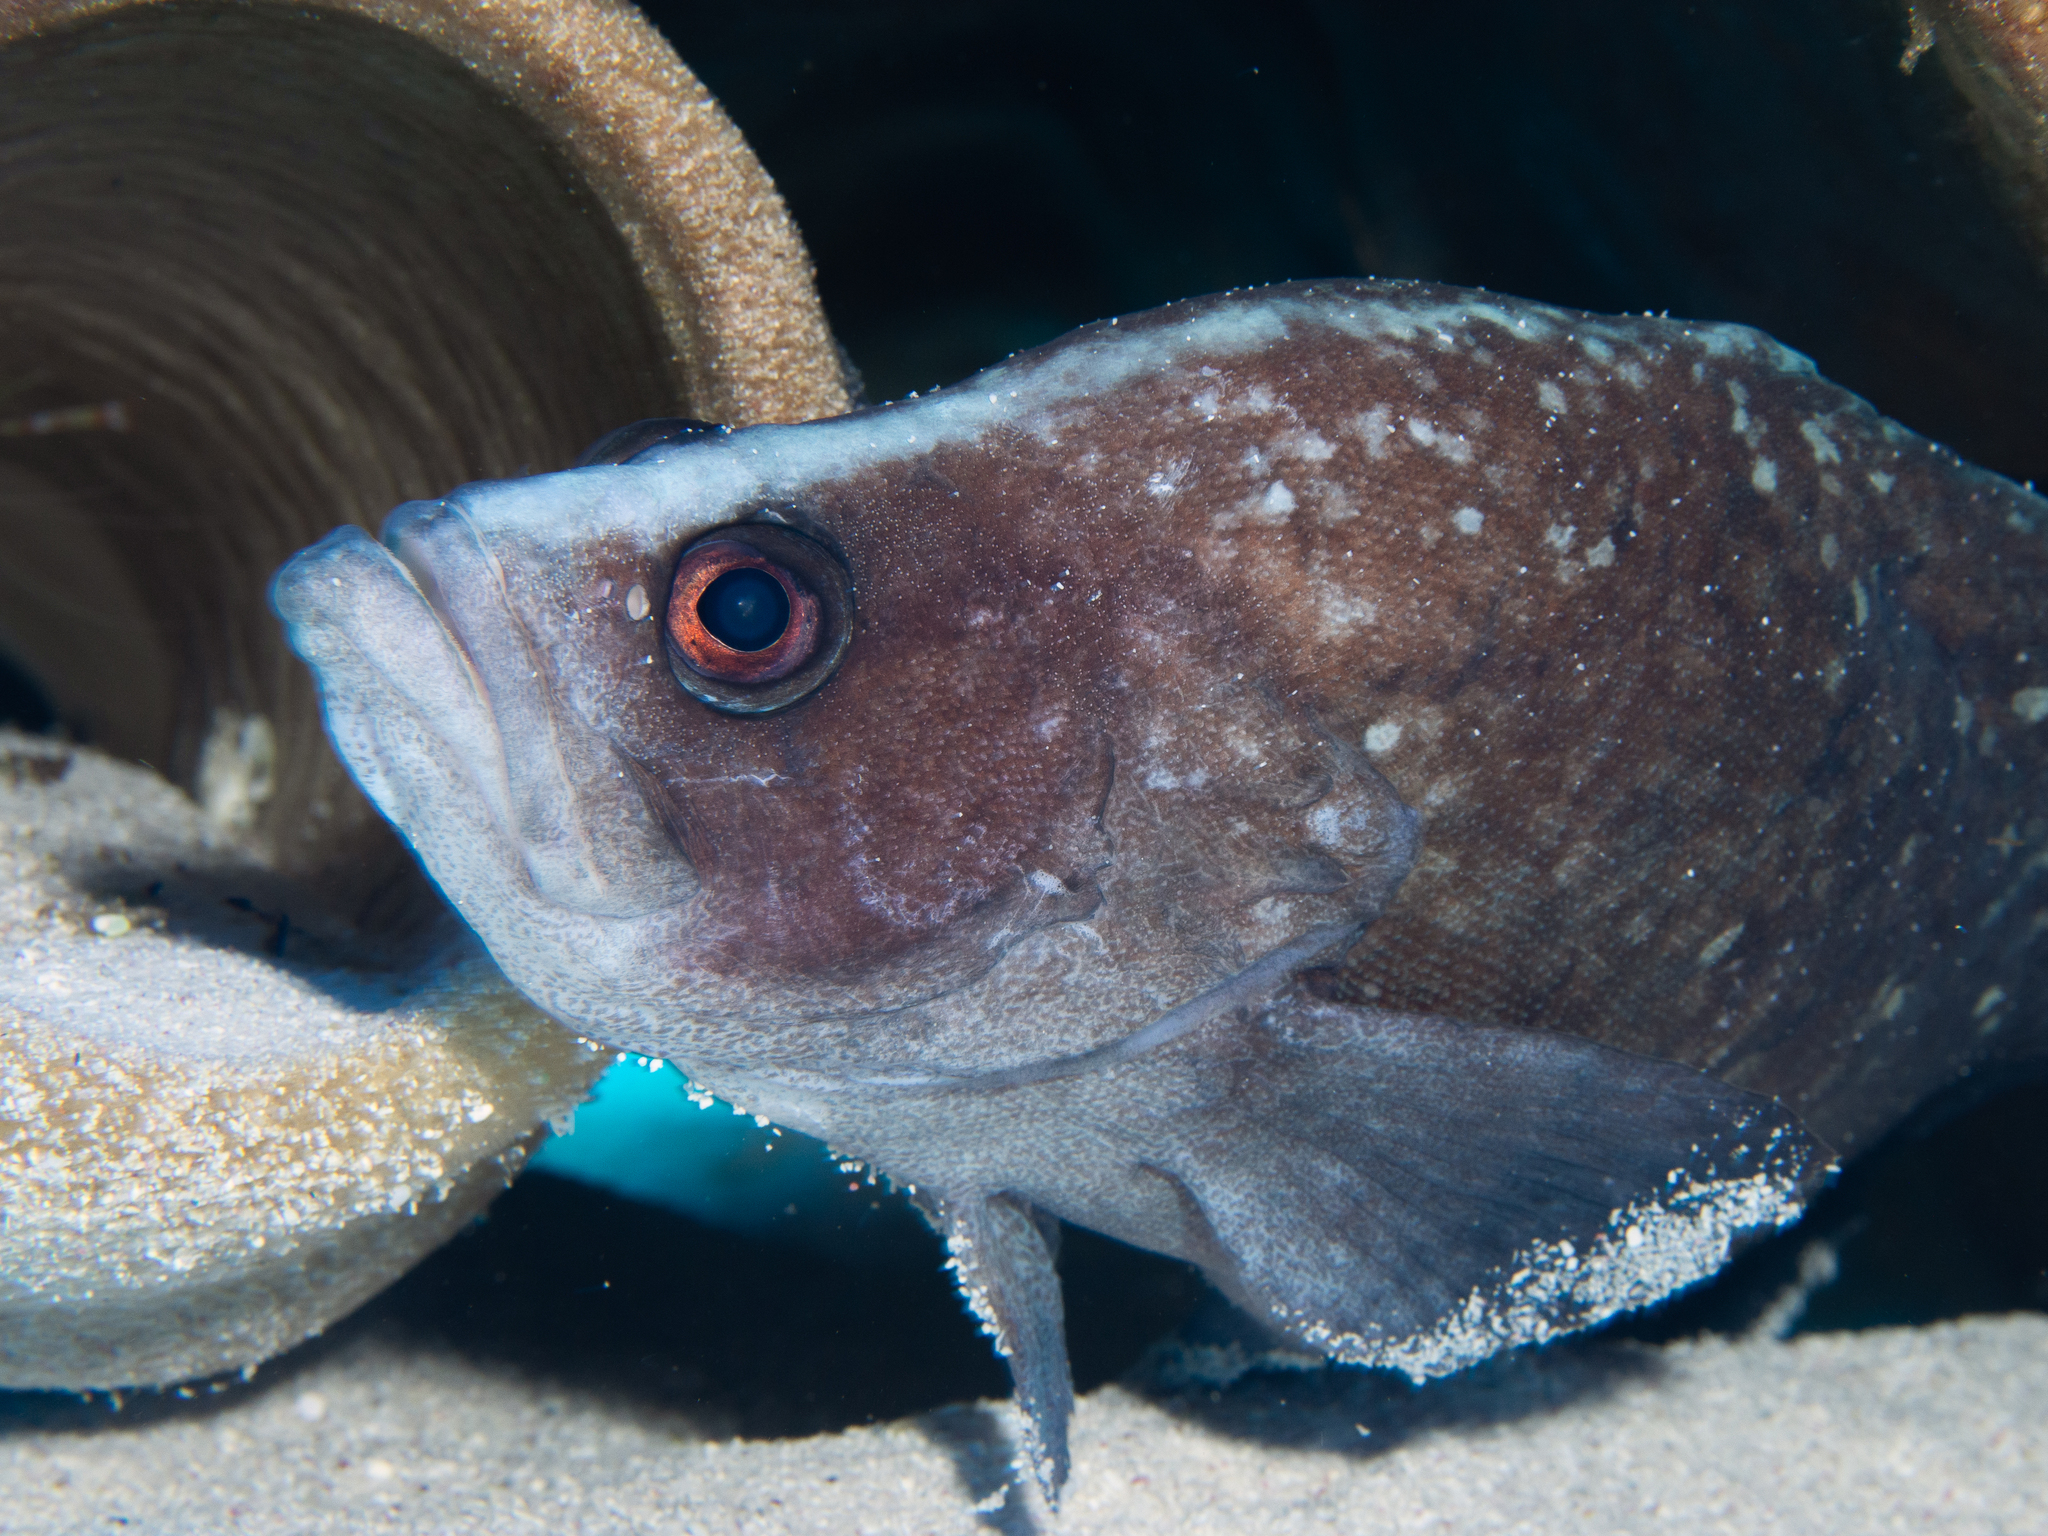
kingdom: Animalia
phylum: Chordata
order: Perciformes
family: Serranidae
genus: Rypticus
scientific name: Rypticus saponaceus
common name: Soapfish
